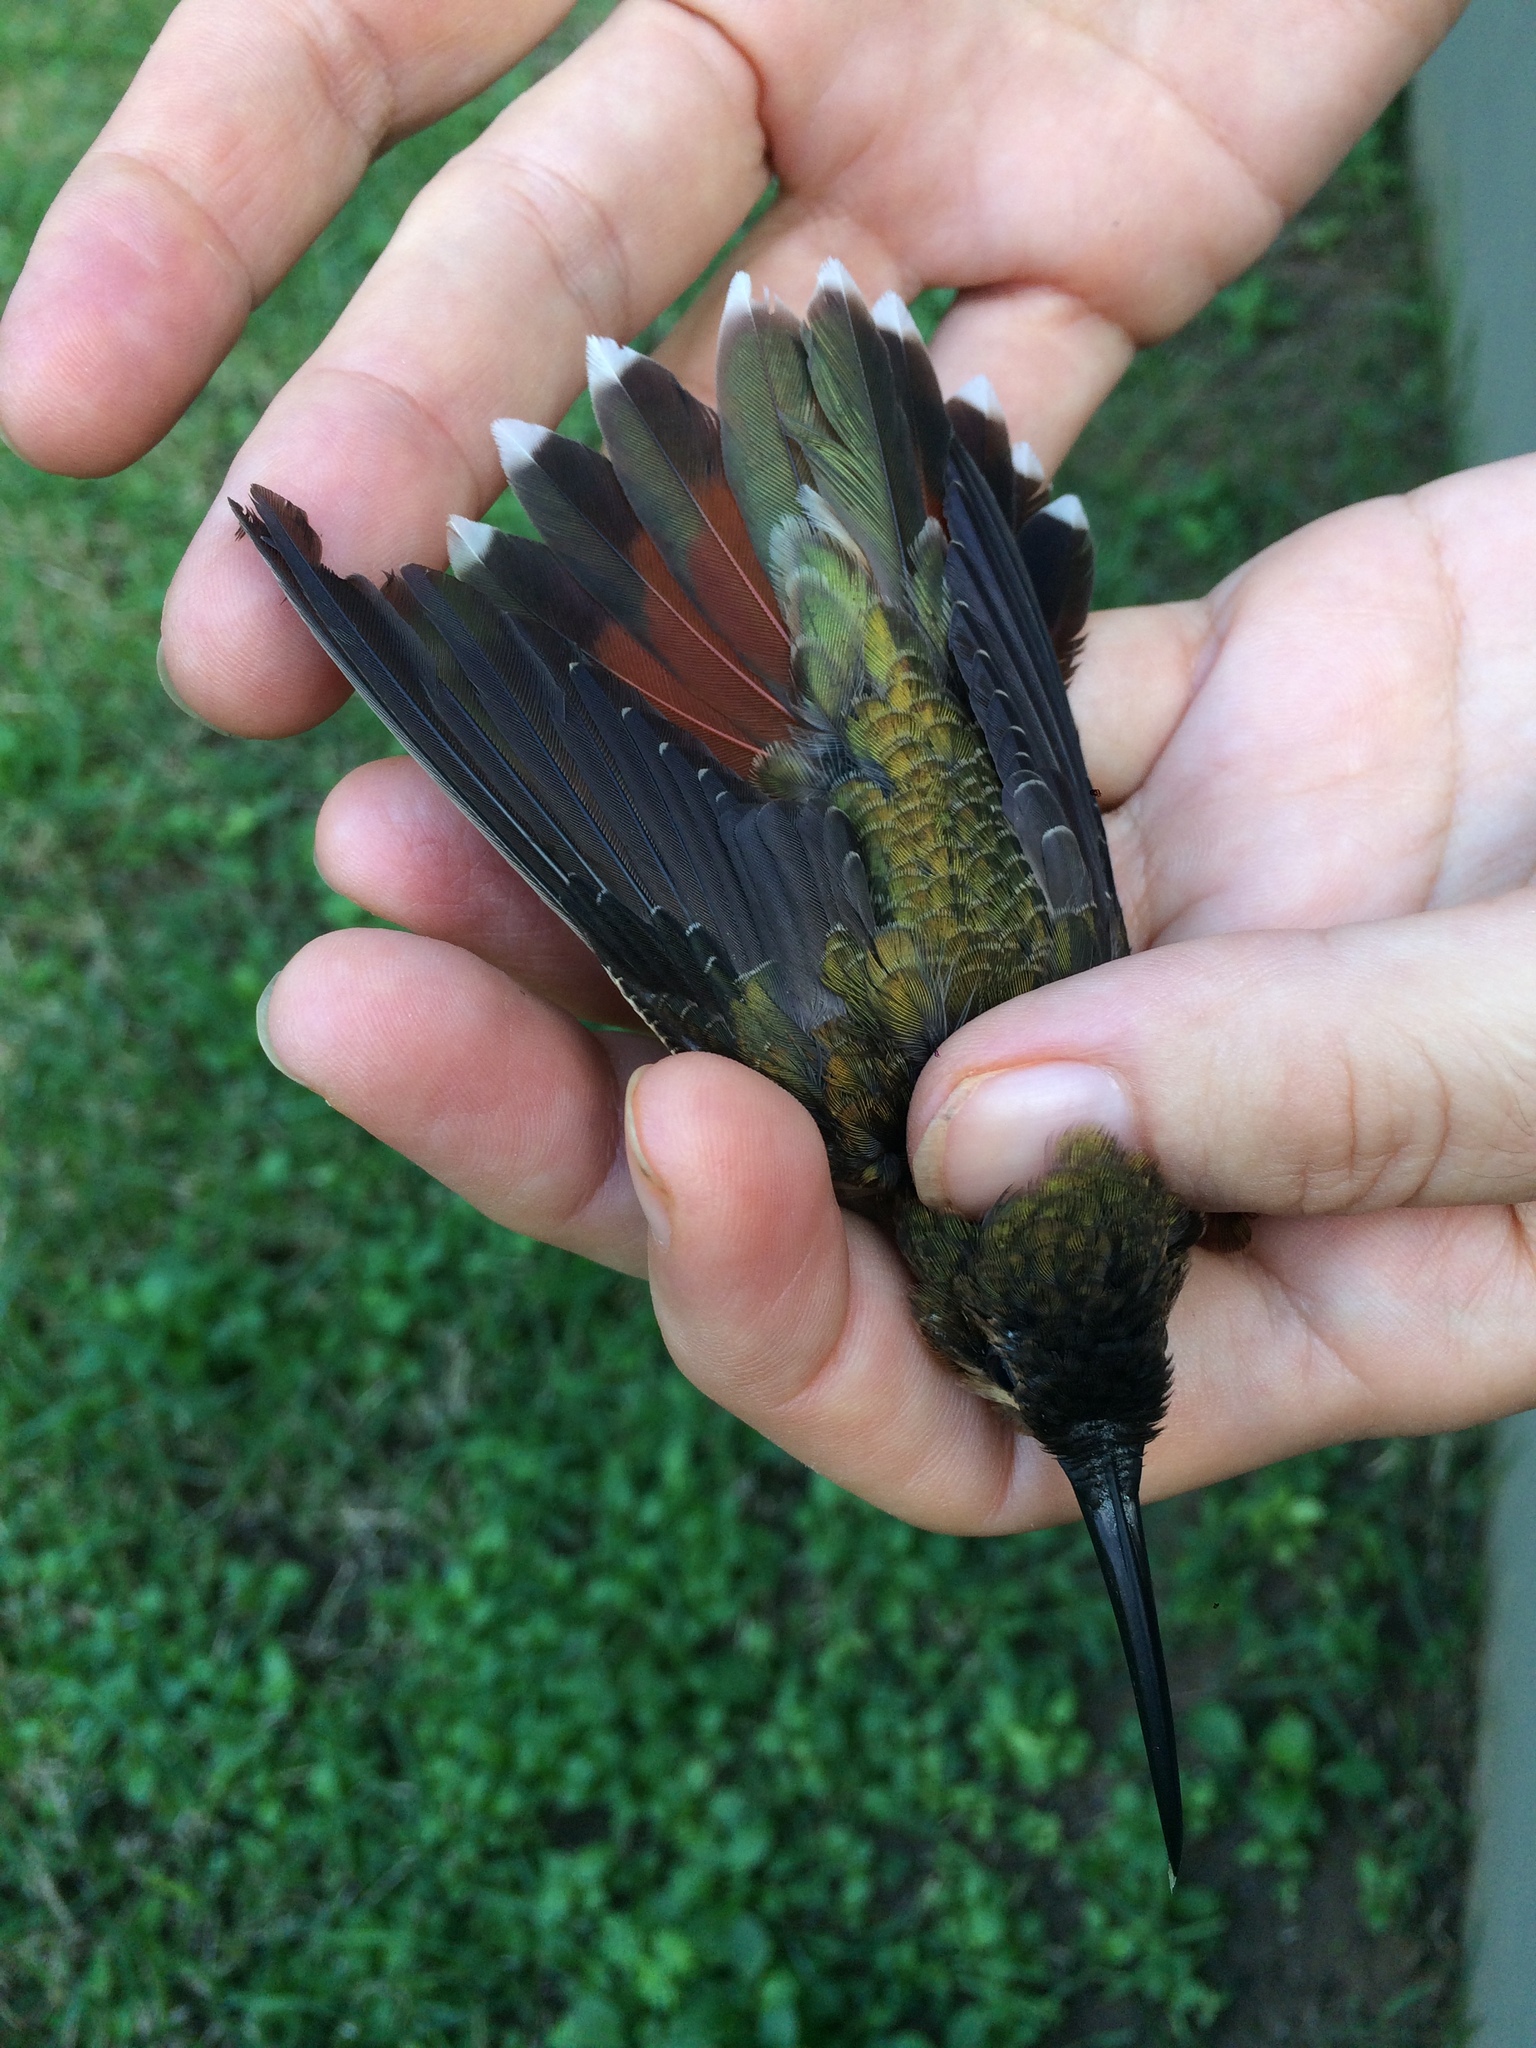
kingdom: Animalia
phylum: Chordata
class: Aves
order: Apodiformes
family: Trochilidae
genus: Glaucis
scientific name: Glaucis hirsutus
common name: Rufous-breasted hermit
